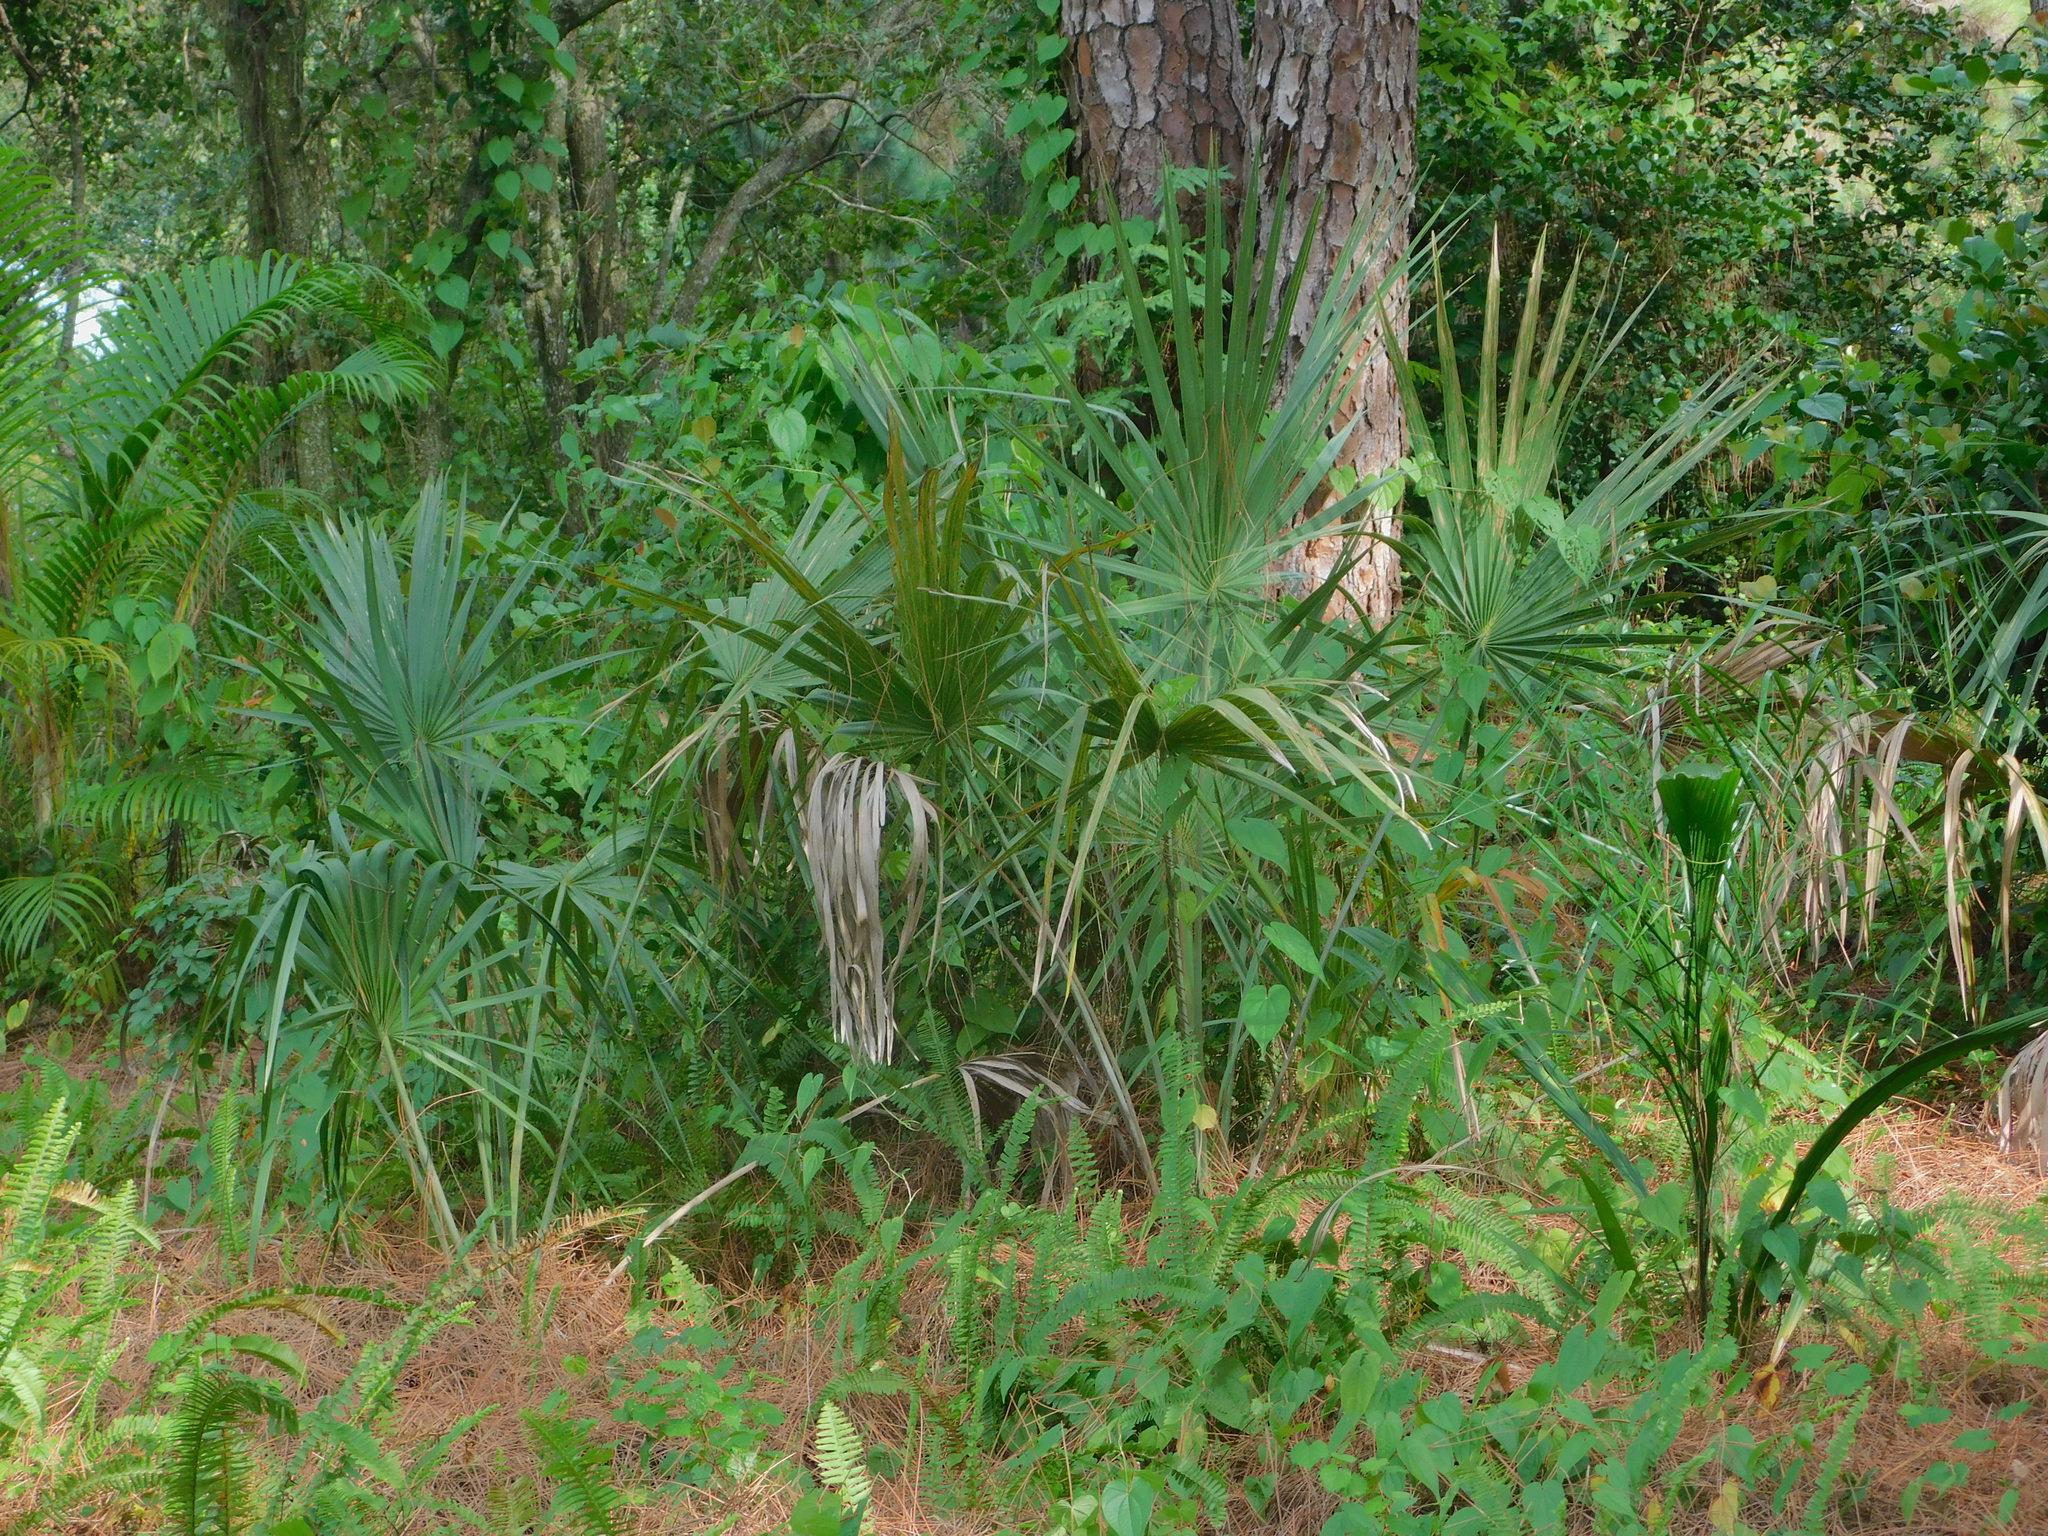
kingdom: Plantae
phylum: Tracheophyta
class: Liliopsida
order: Arecales
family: Arecaceae
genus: Sabal
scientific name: Sabal palmetto
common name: Blue palmetto
